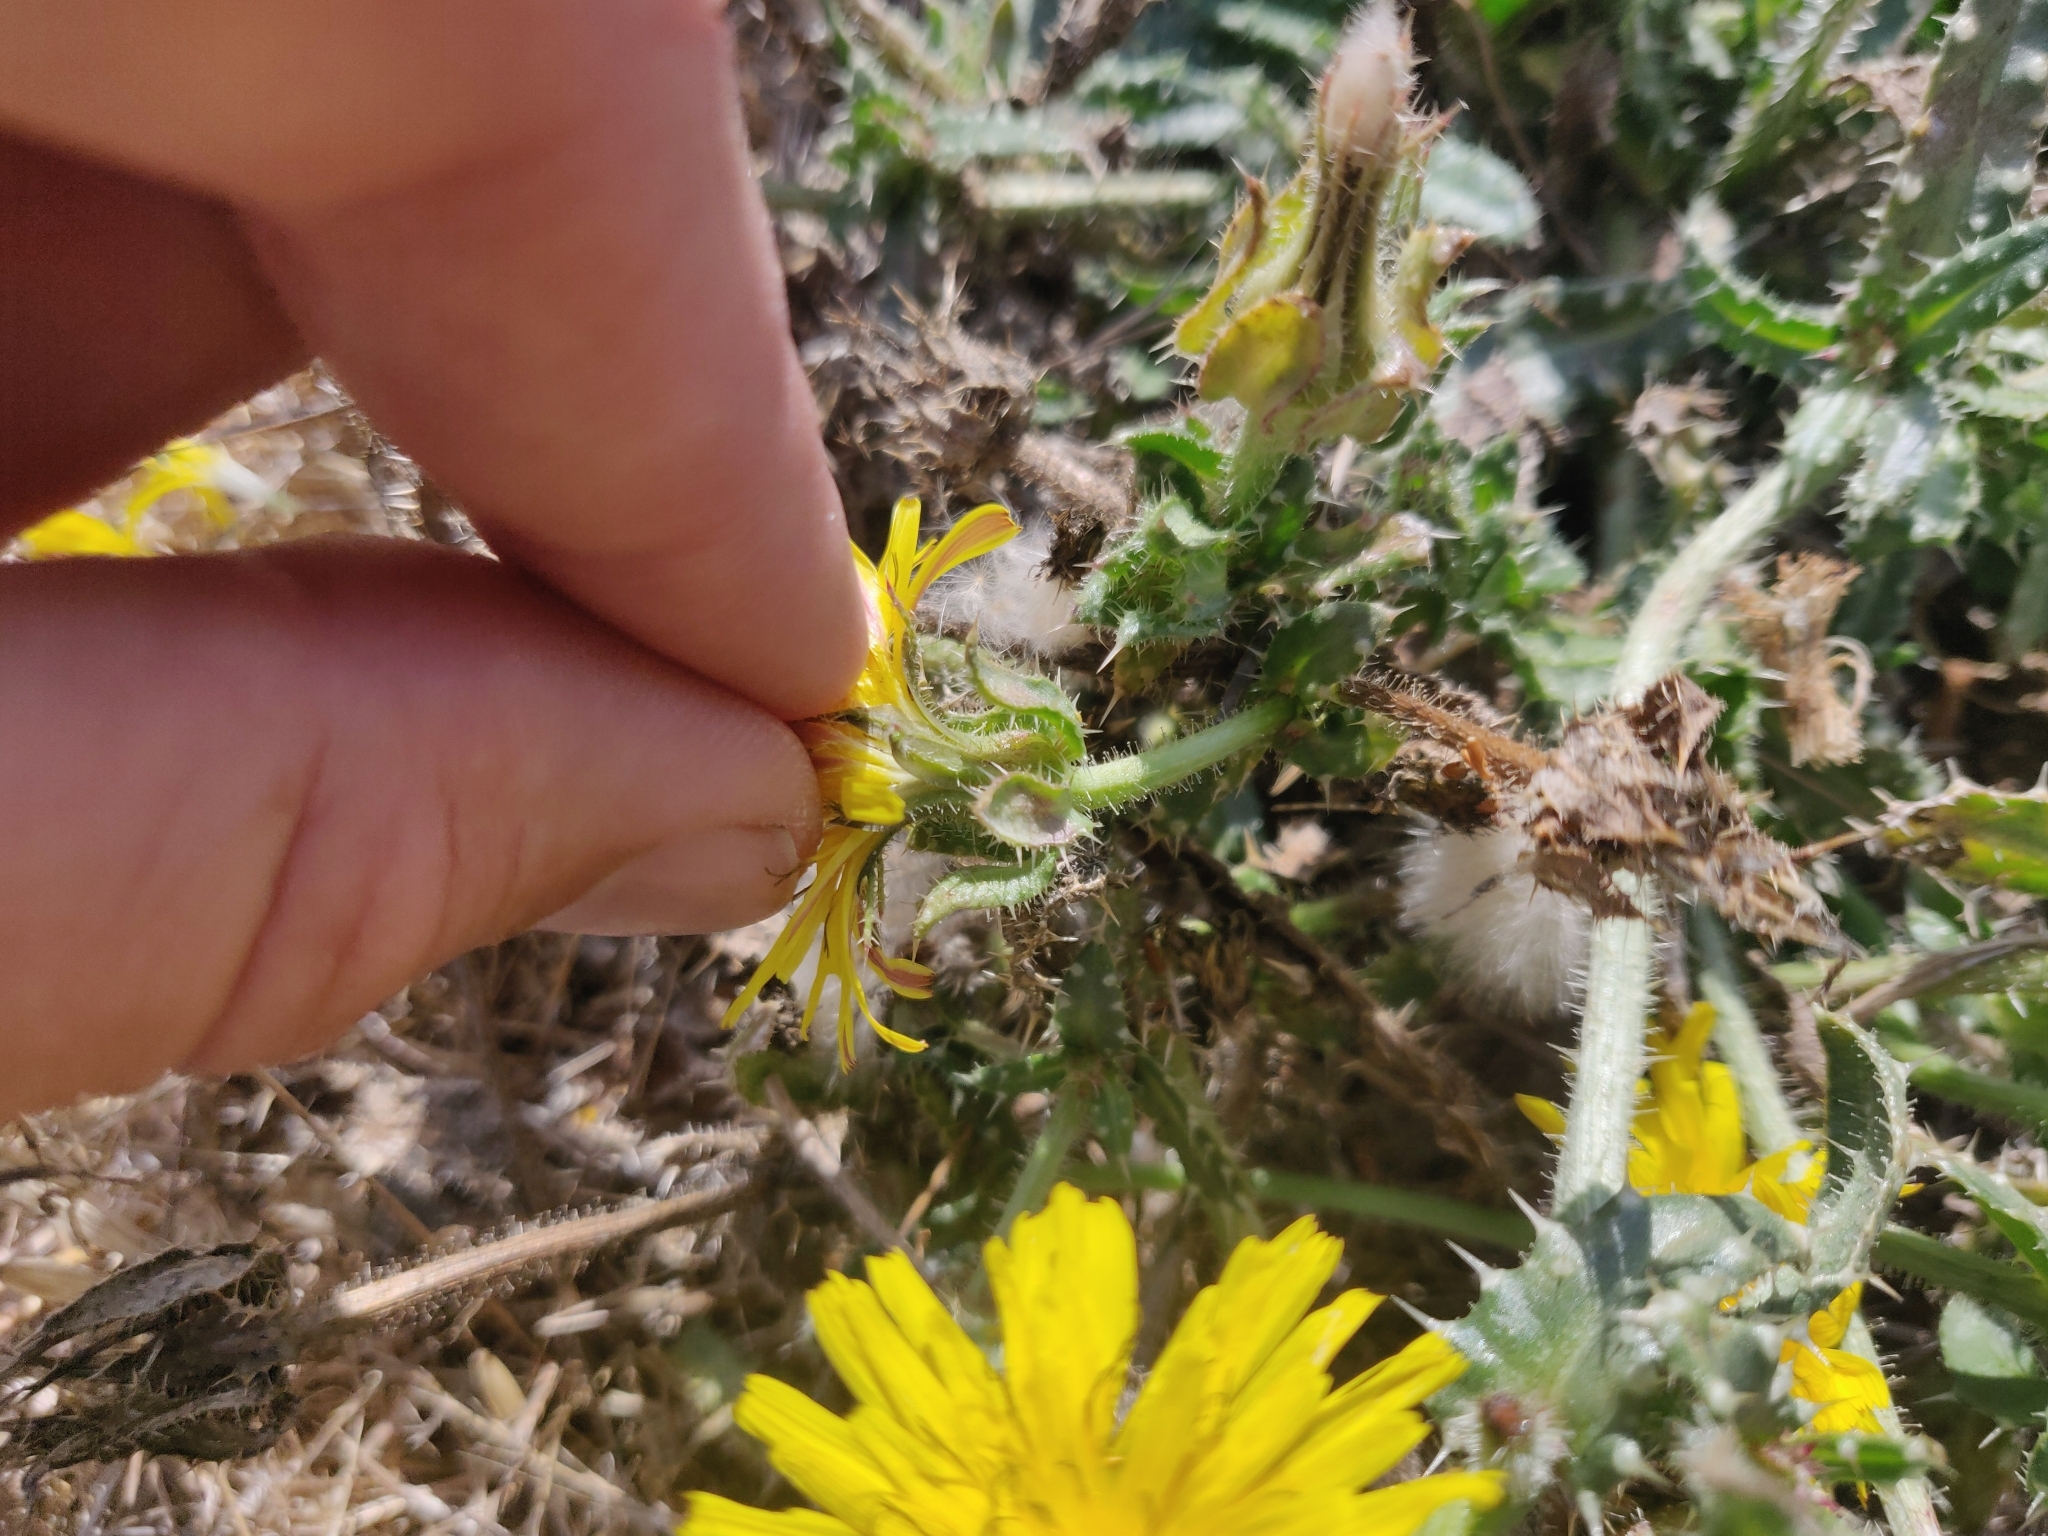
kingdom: Plantae
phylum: Tracheophyta
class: Magnoliopsida
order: Asterales
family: Asteraceae
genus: Helminthotheca
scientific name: Helminthotheca echioides
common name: Ox-tongue
